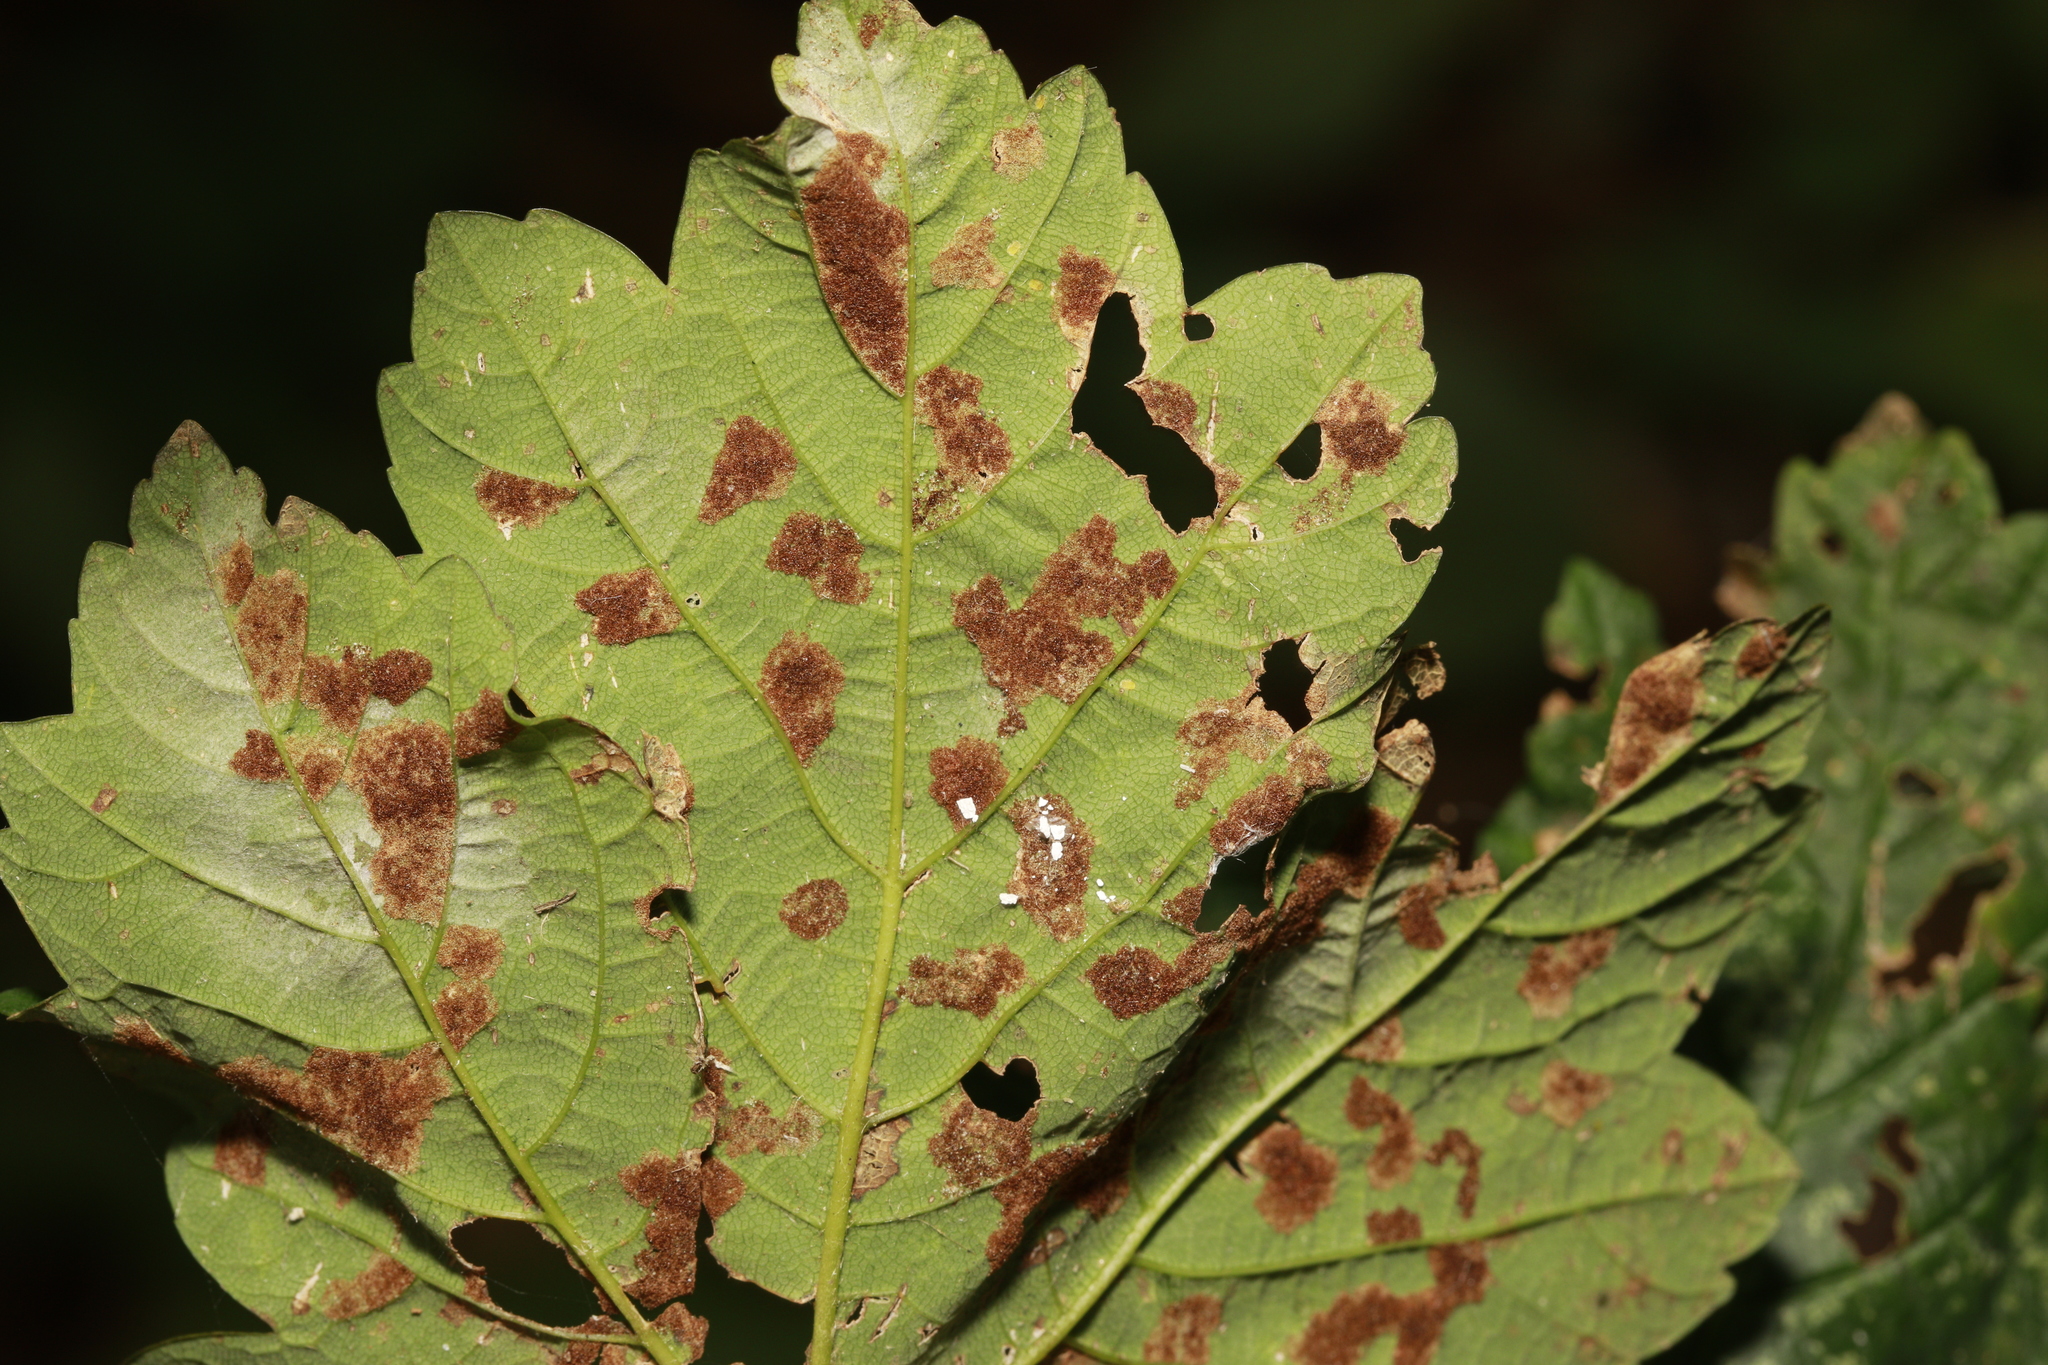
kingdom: Animalia
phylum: Arthropoda
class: Arachnida
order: Trombidiformes
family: Eriophyidae
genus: Aceria
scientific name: Aceria pseudoplatani
